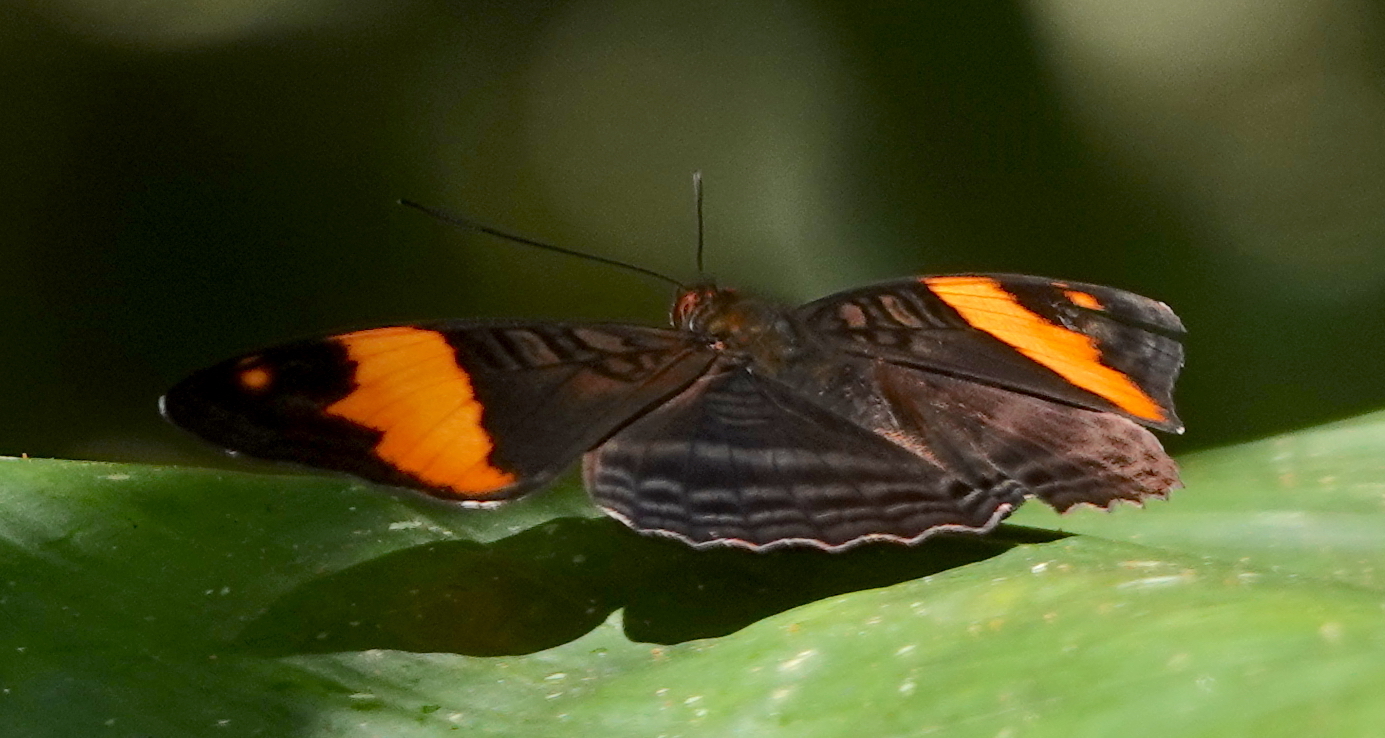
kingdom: Animalia
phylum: Arthropoda
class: Insecta
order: Lepidoptera
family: Nymphalidae
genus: Limenitis
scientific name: Limenitis boreas
